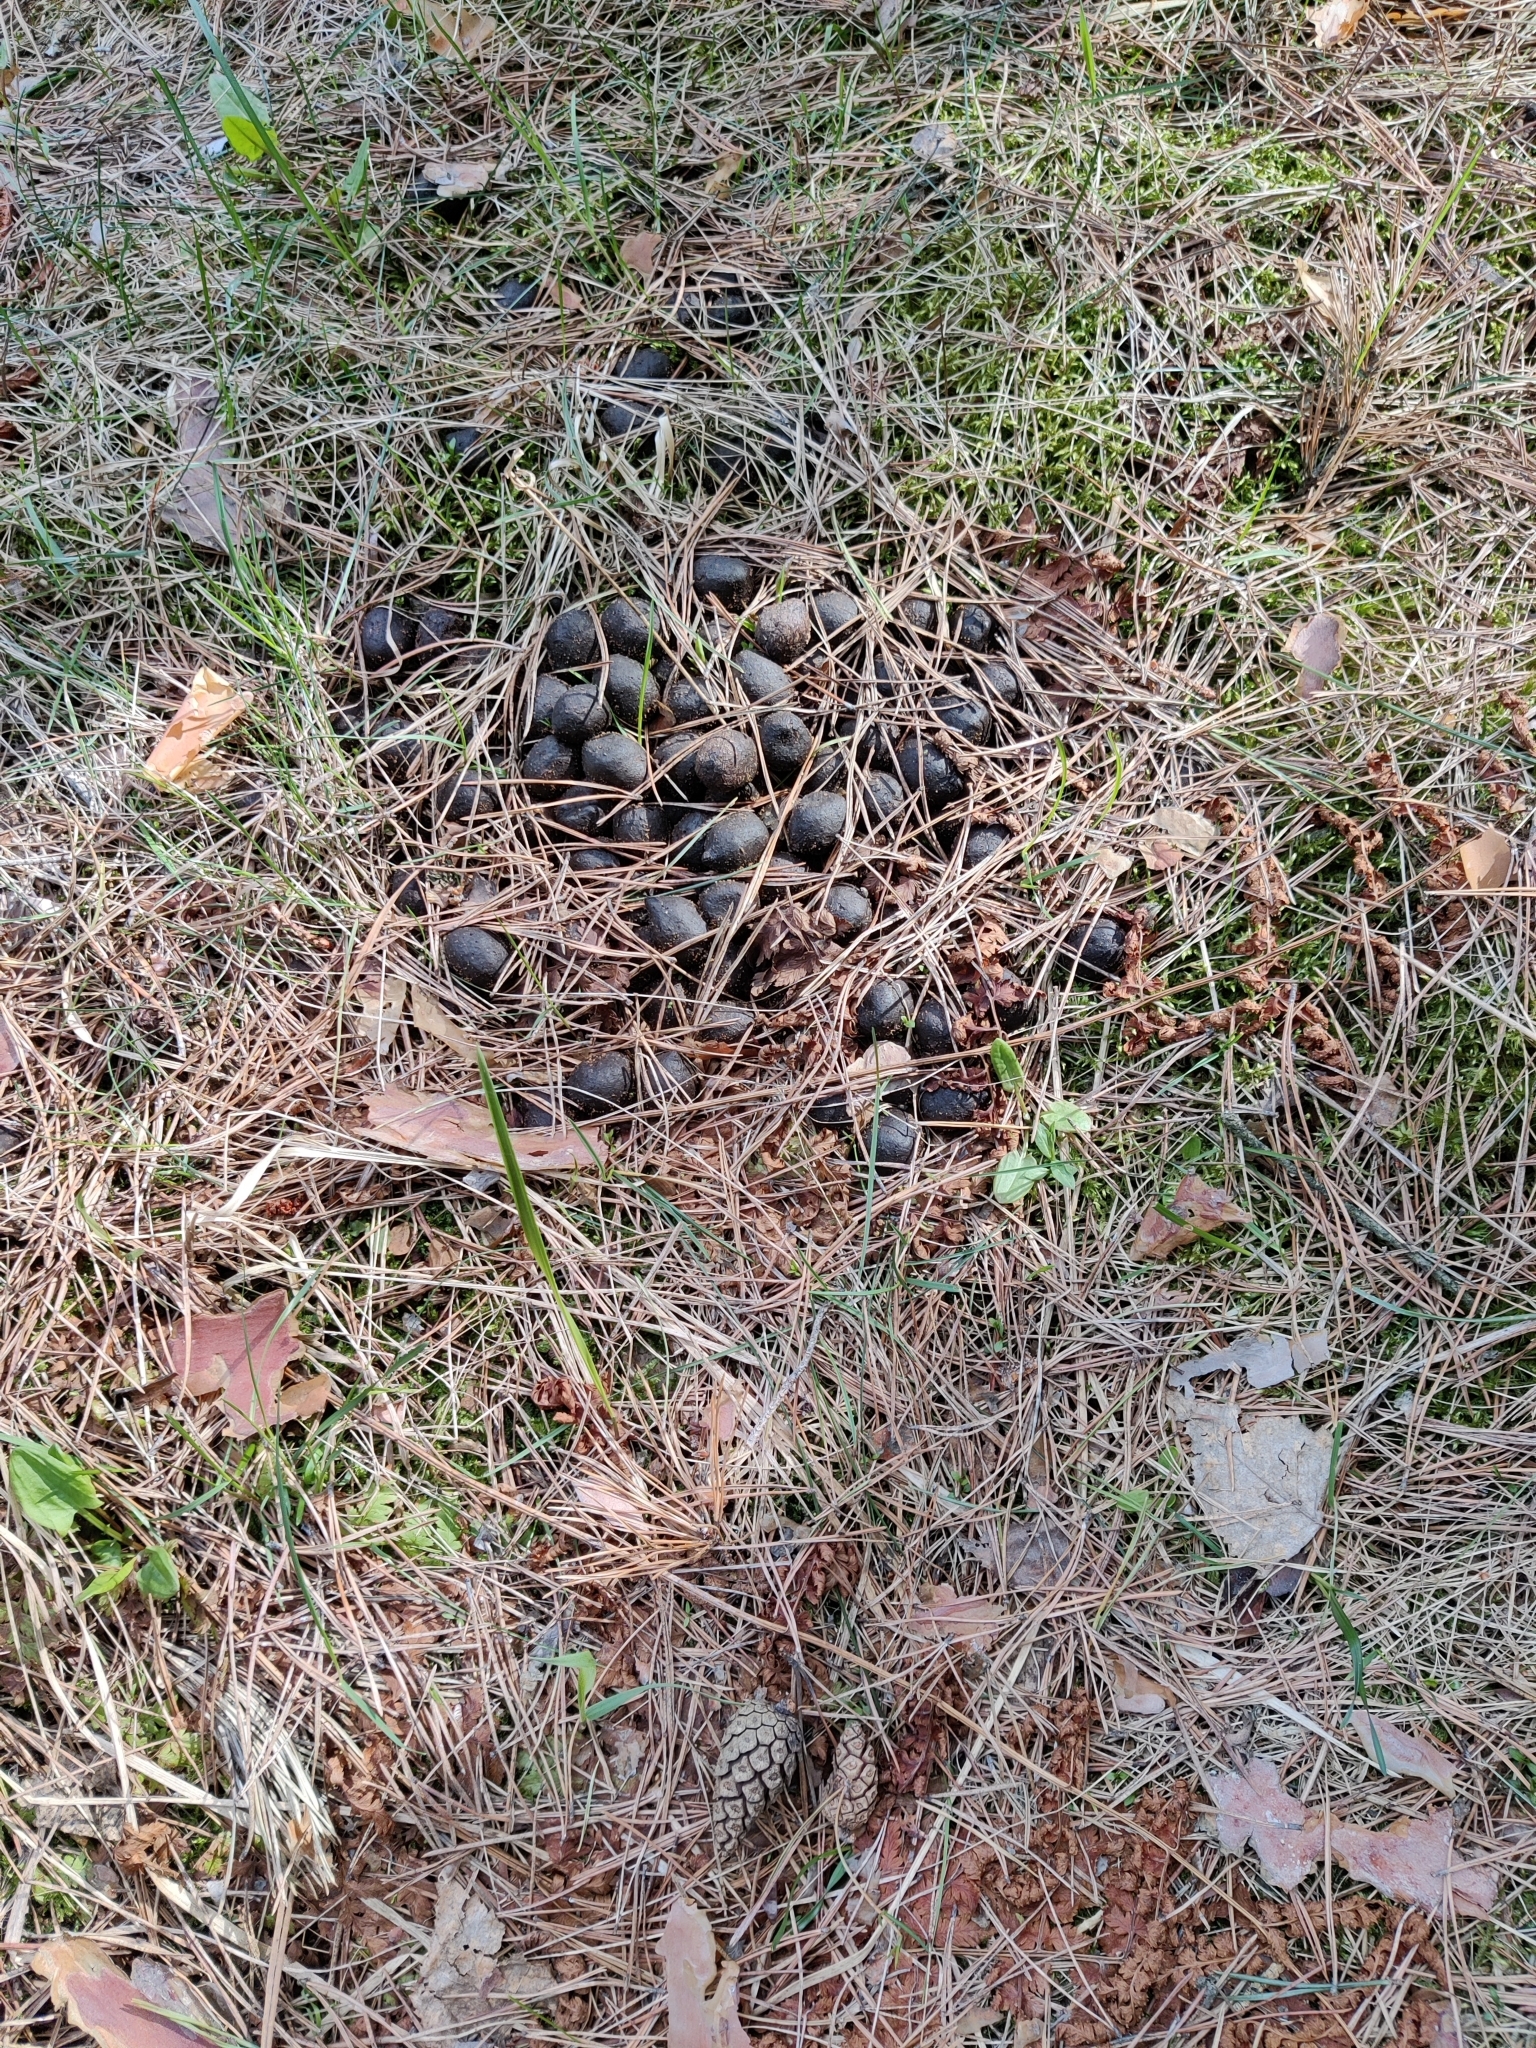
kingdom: Animalia
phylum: Chordata
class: Mammalia
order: Artiodactyla
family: Cervidae
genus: Alces
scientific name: Alces alces
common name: Moose
